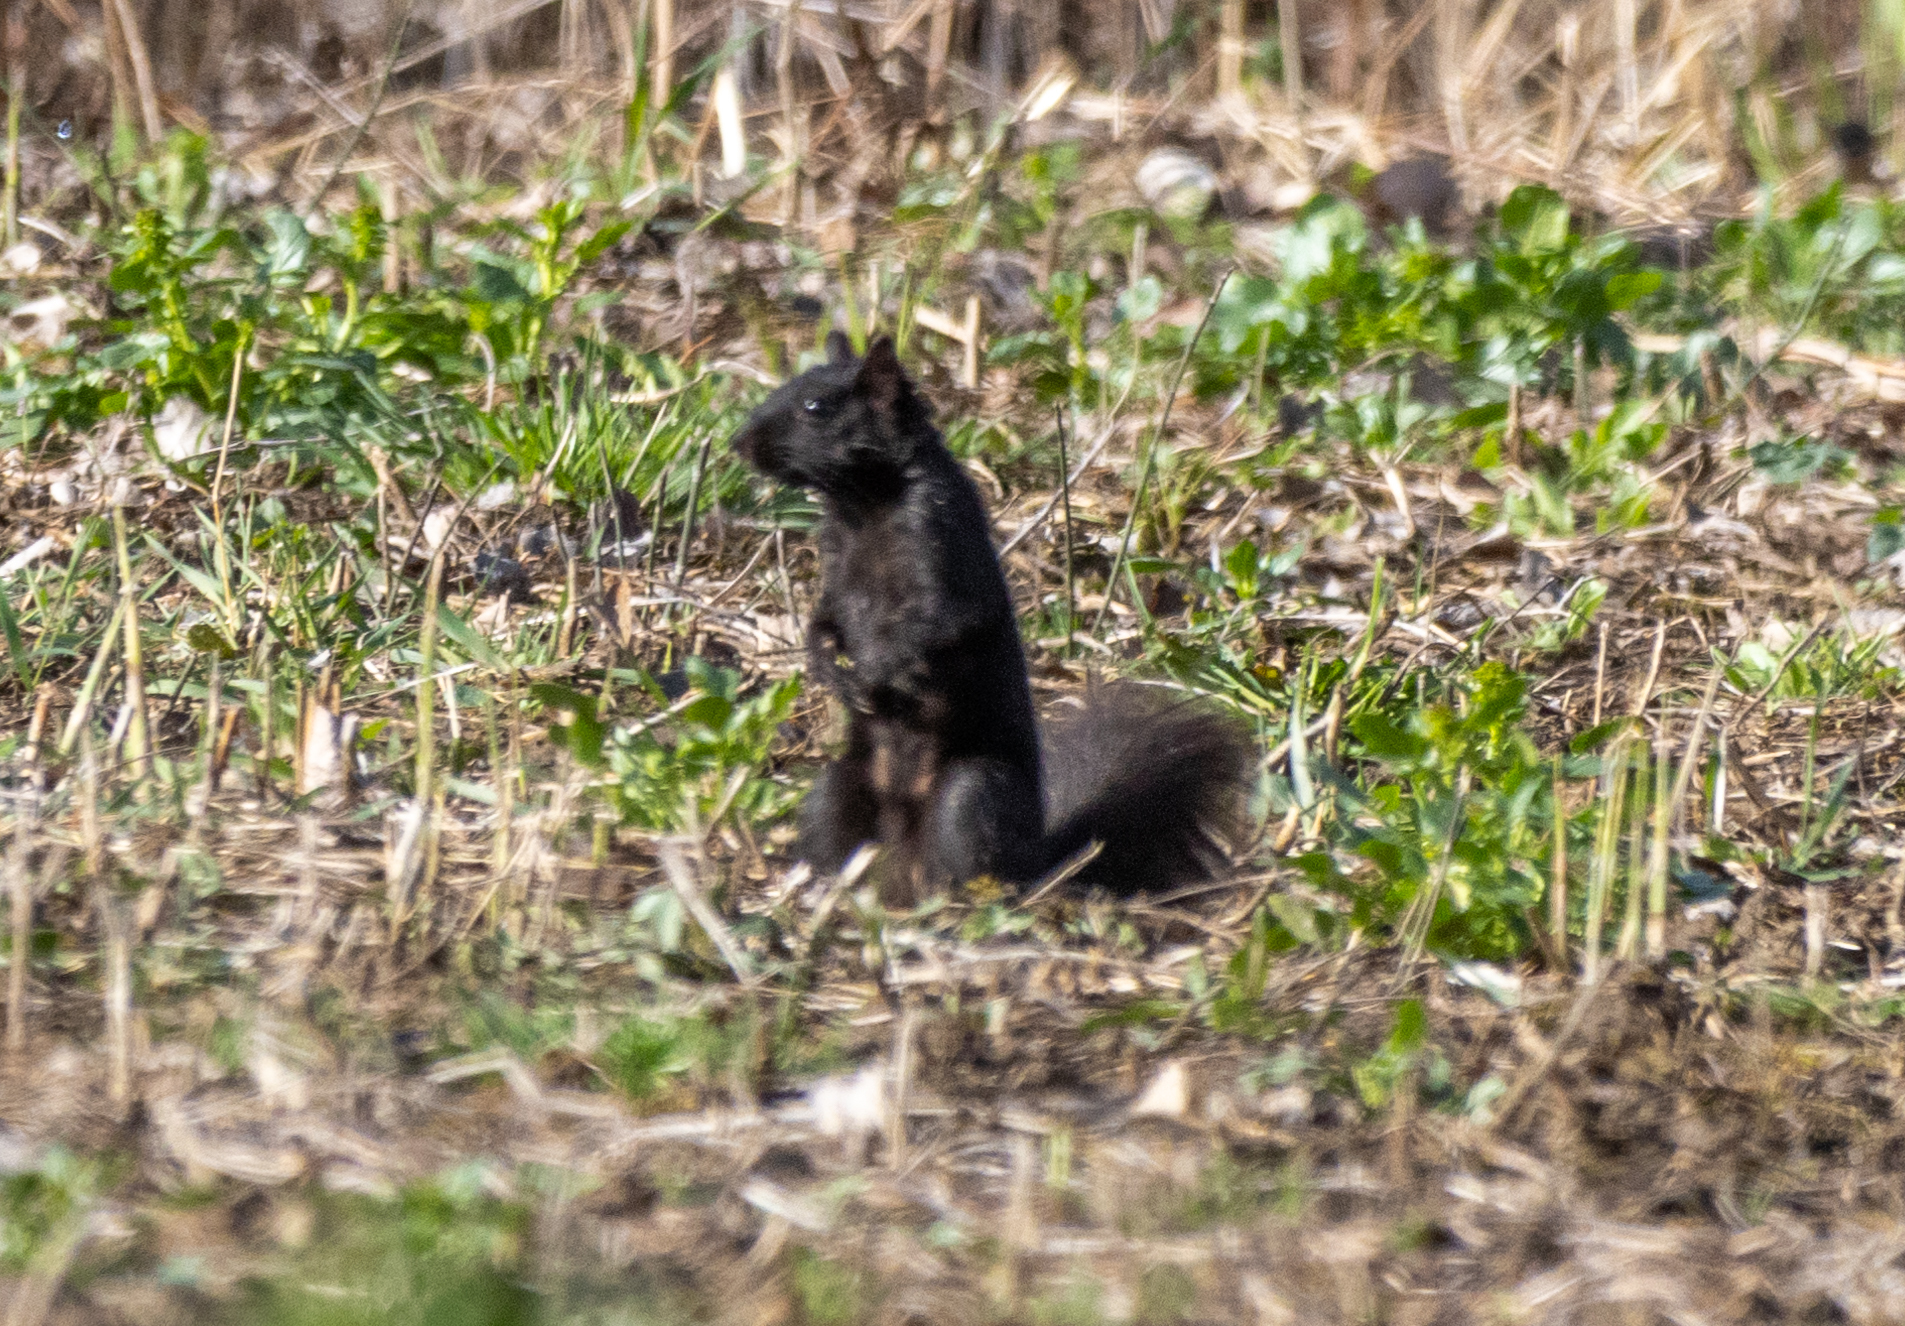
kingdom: Animalia
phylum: Chordata
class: Mammalia
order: Rodentia
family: Sciuridae
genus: Sciurus
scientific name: Sciurus carolinensis
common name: Eastern gray squirrel
